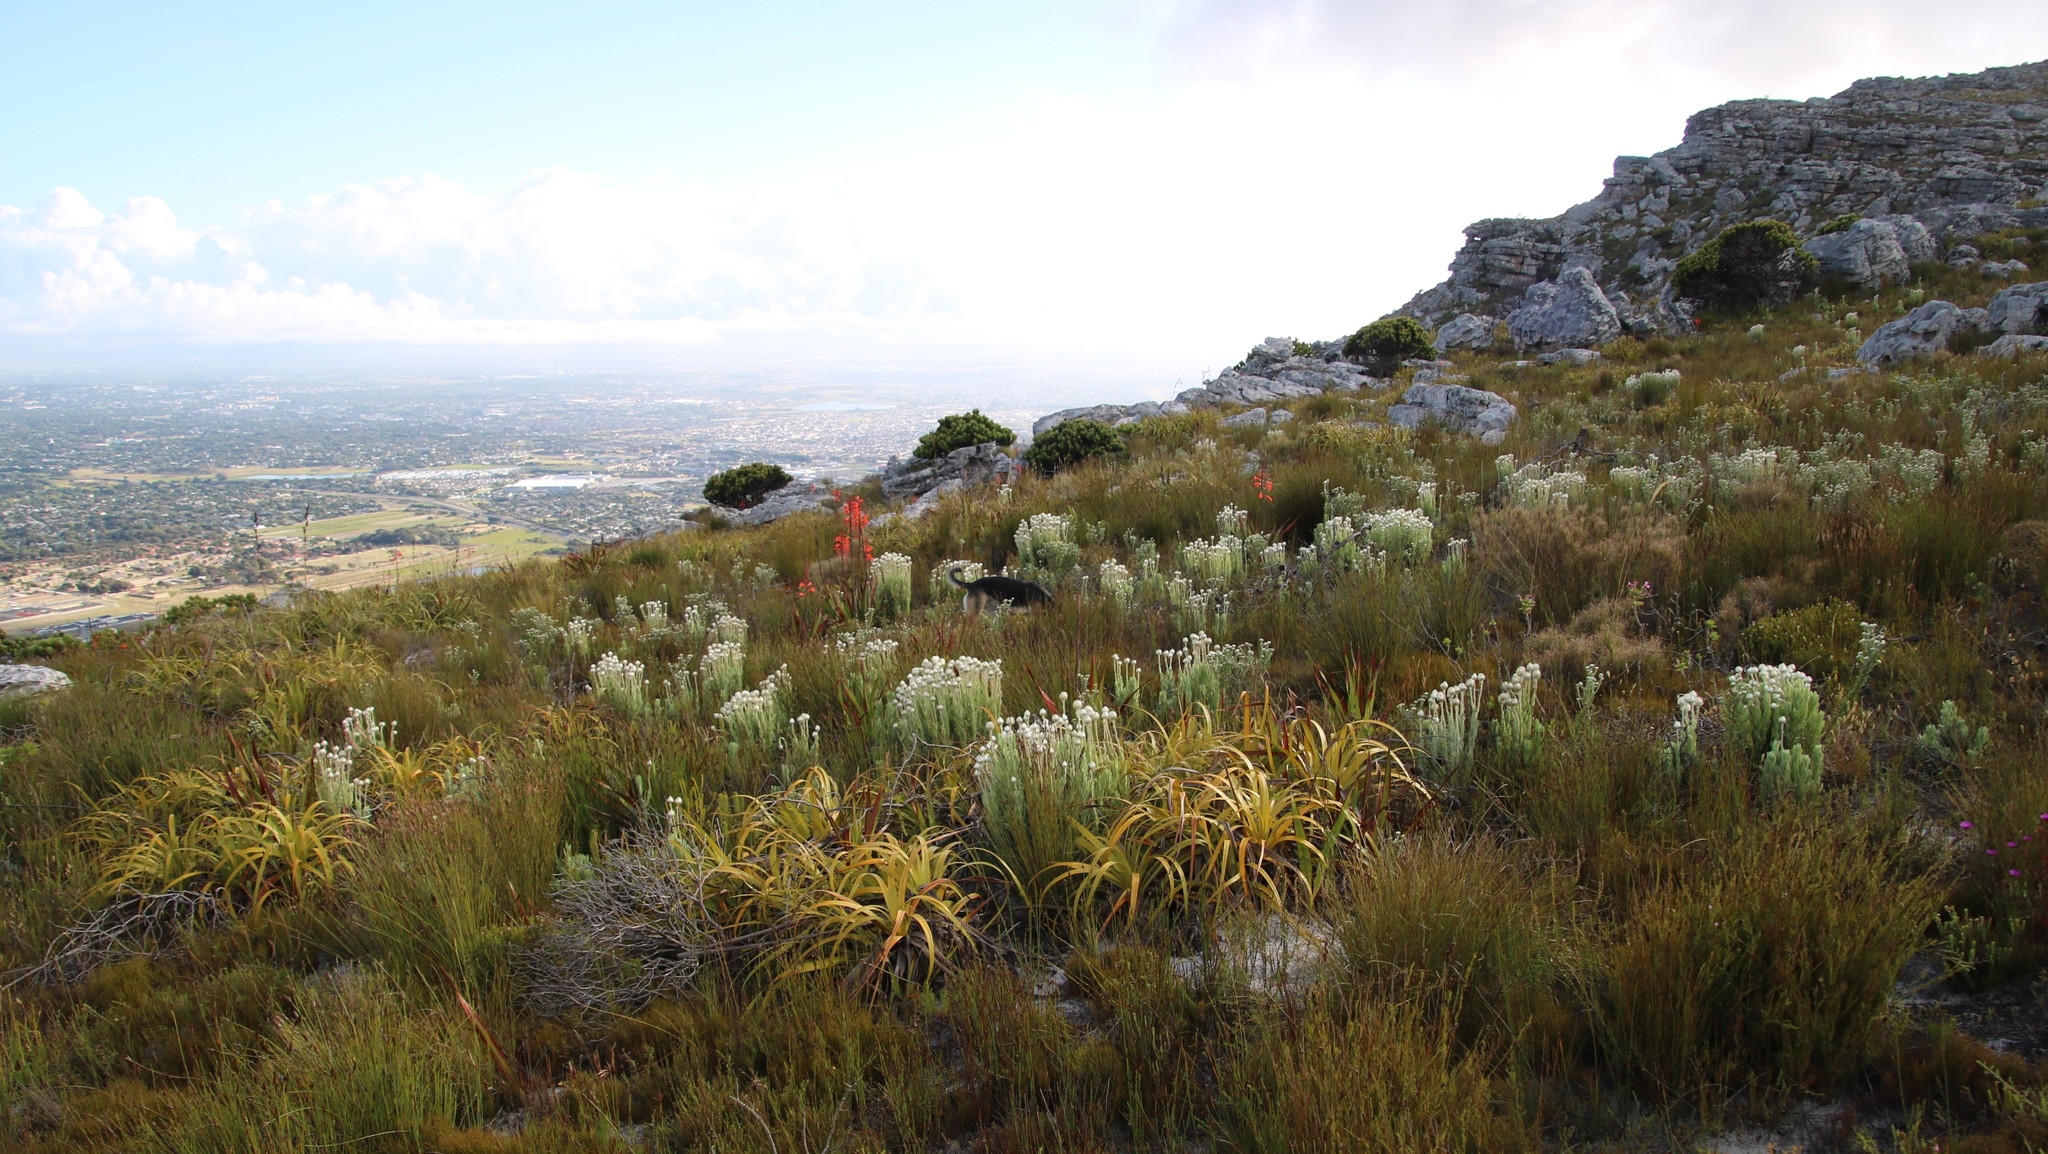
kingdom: Plantae
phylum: Tracheophyta
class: Magnoliopsida
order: Asterales
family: Asteraceae
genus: Syncarpha
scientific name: Syncarpha vestita
